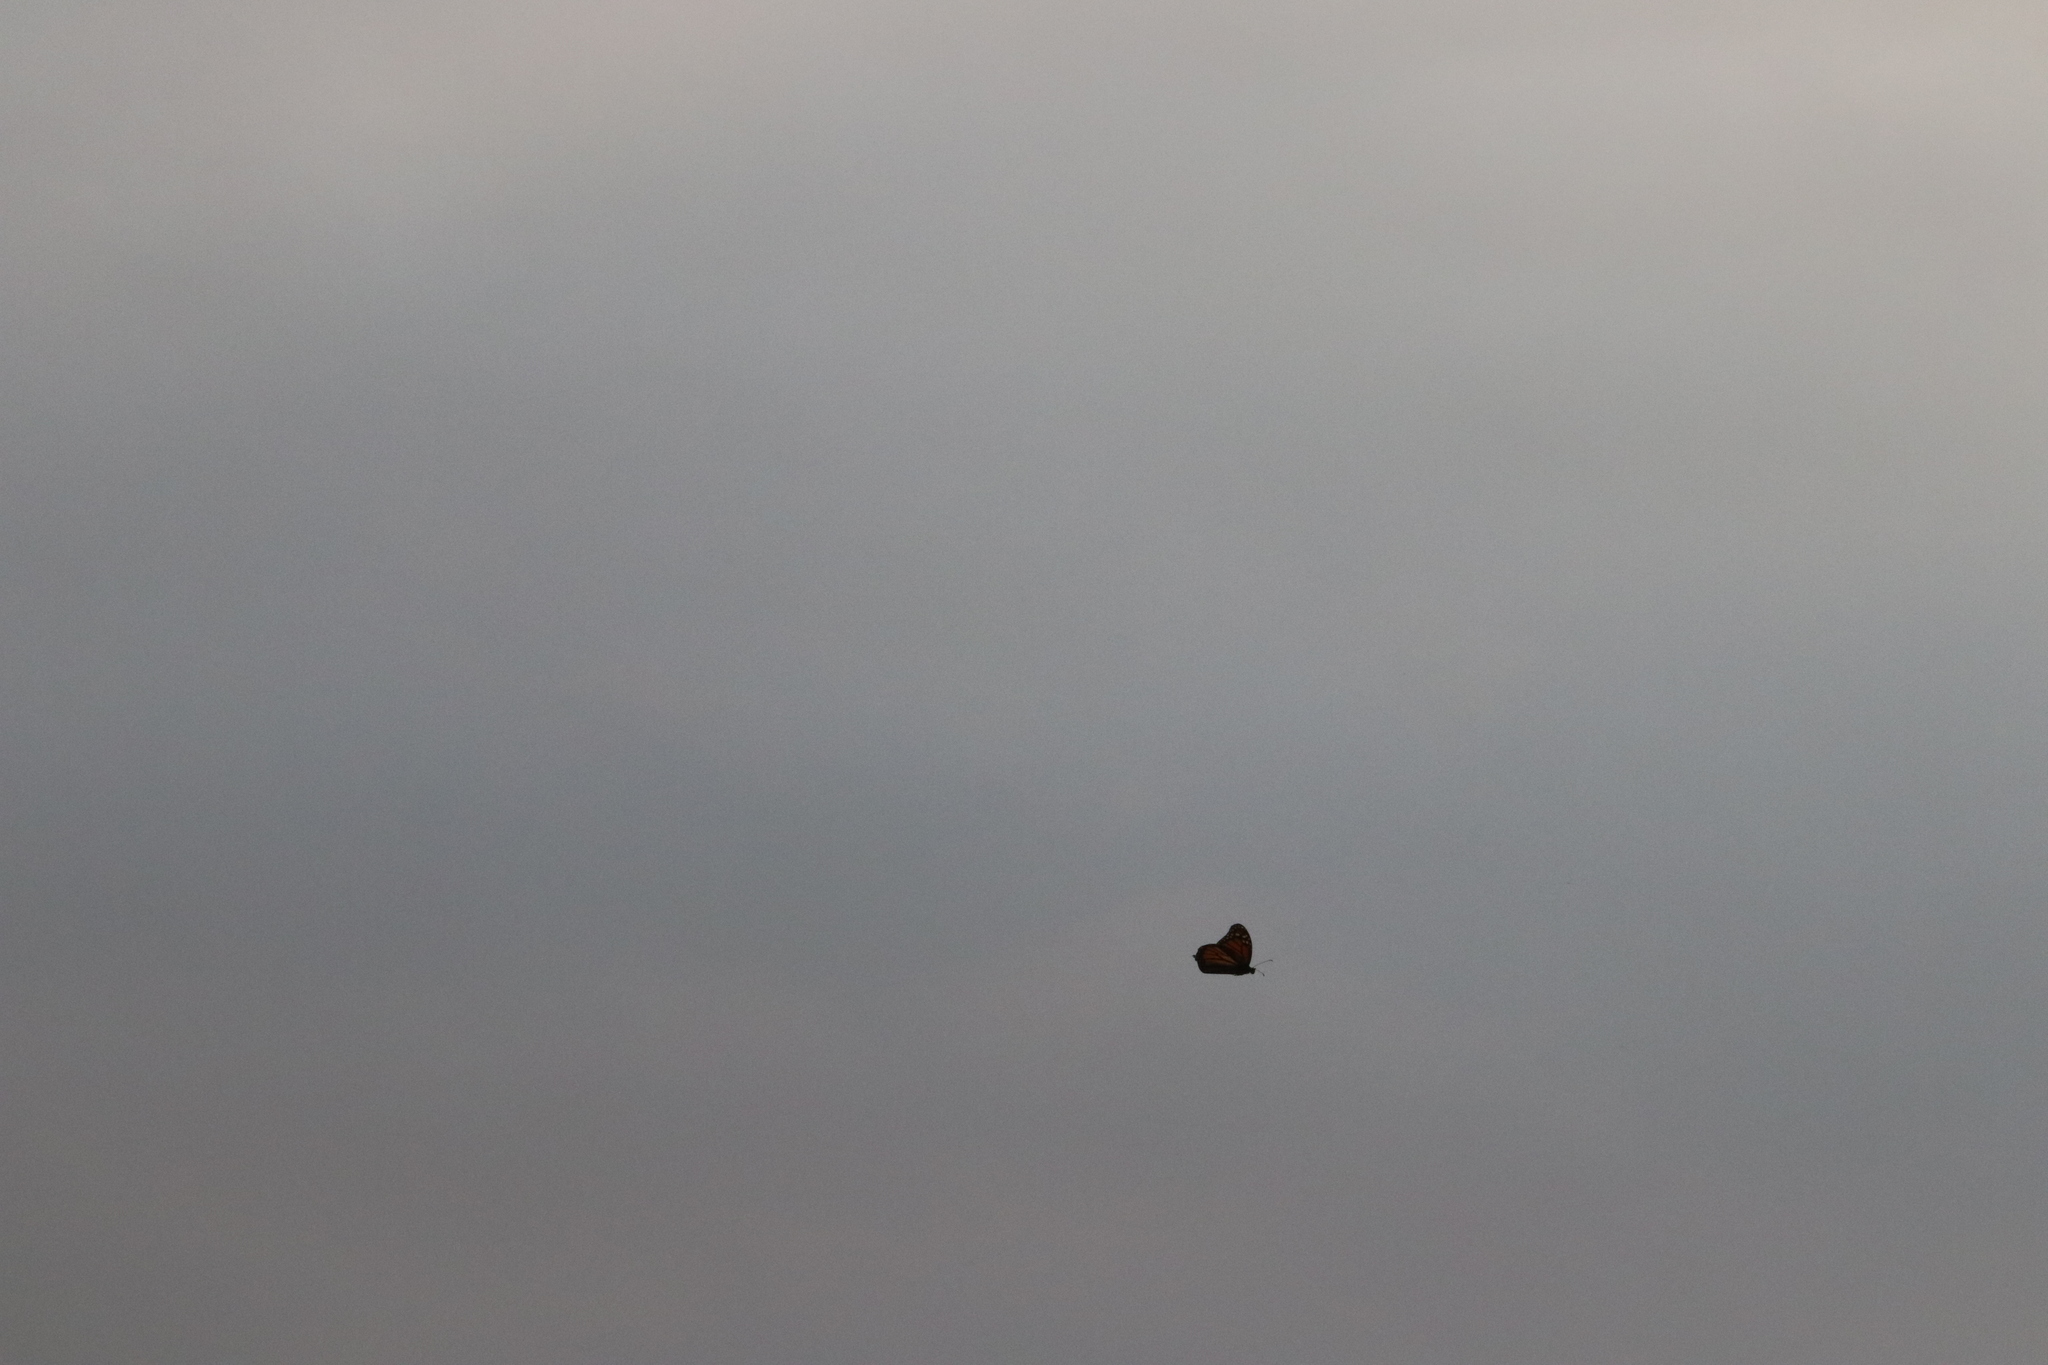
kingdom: Animalia
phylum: Arthropoda
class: Insecta
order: Lepidoptera
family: Nymphalidae
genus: Danaus
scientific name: Danaus plexippus
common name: Monarch
